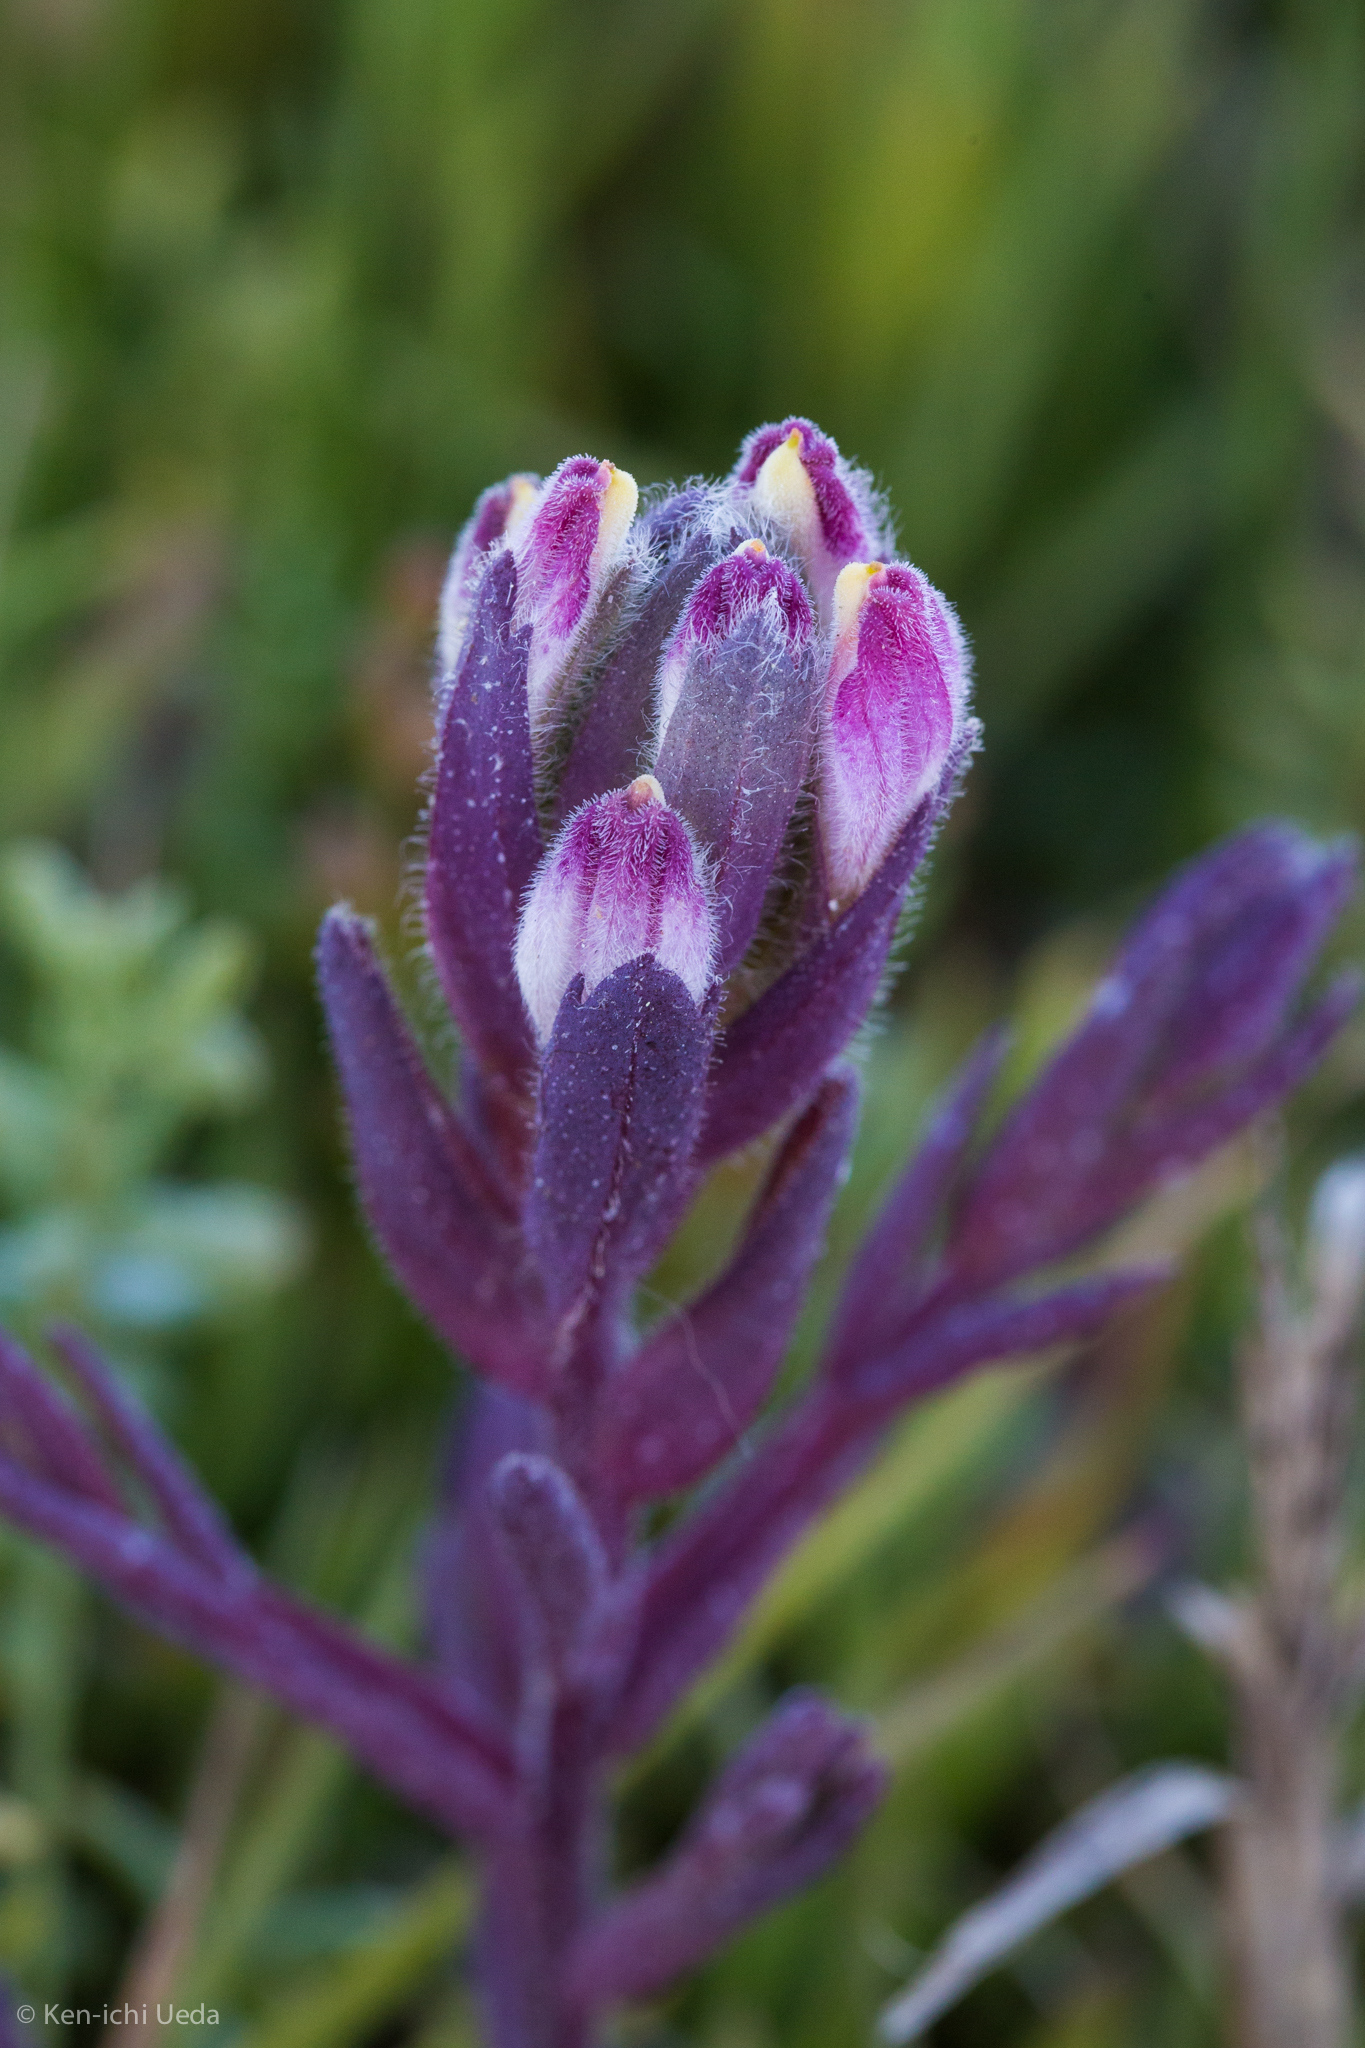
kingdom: Plantae
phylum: Tracheophyta
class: Magnoliopsida
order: Lamiales
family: Orobanchaceae
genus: Chloropyron
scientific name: Chloropyron maritimum
